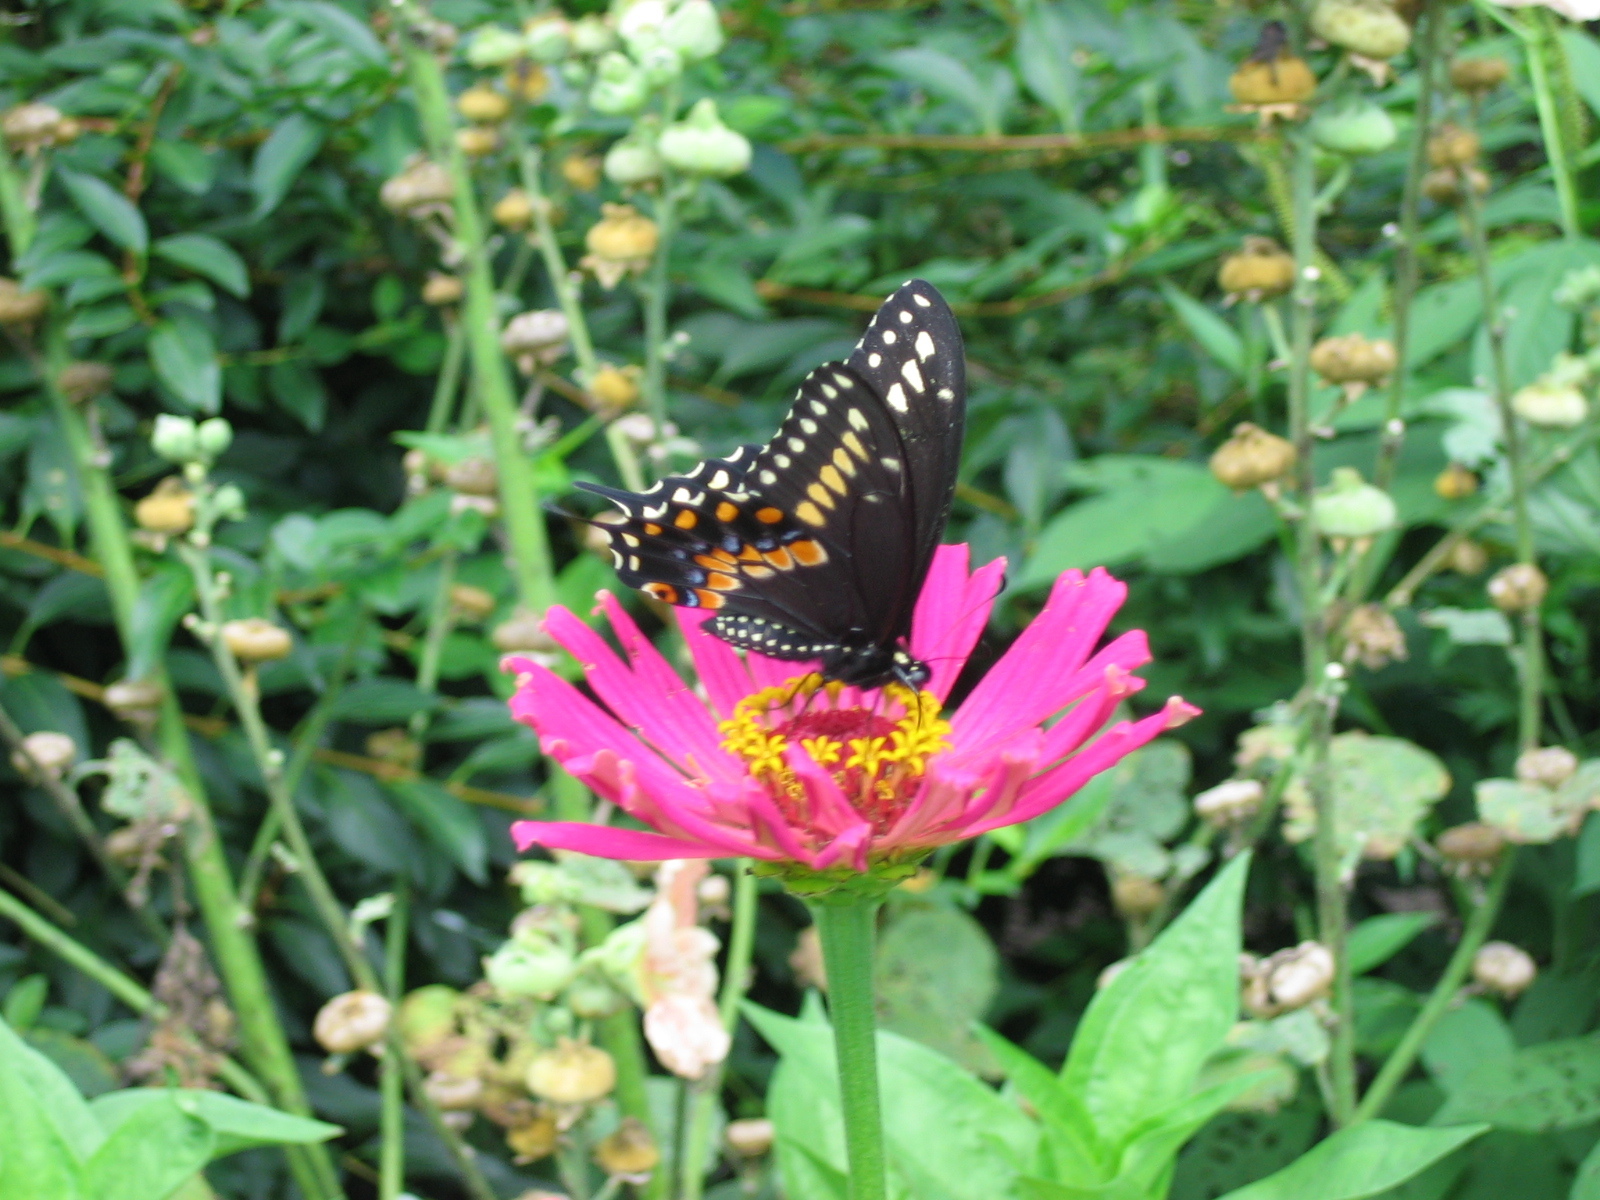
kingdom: Animalia
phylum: Arthropoda
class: Insecta
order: Lepidoptera
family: Papilionidae
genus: Papilio
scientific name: Papilio polyxenes
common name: Black swallowtail
